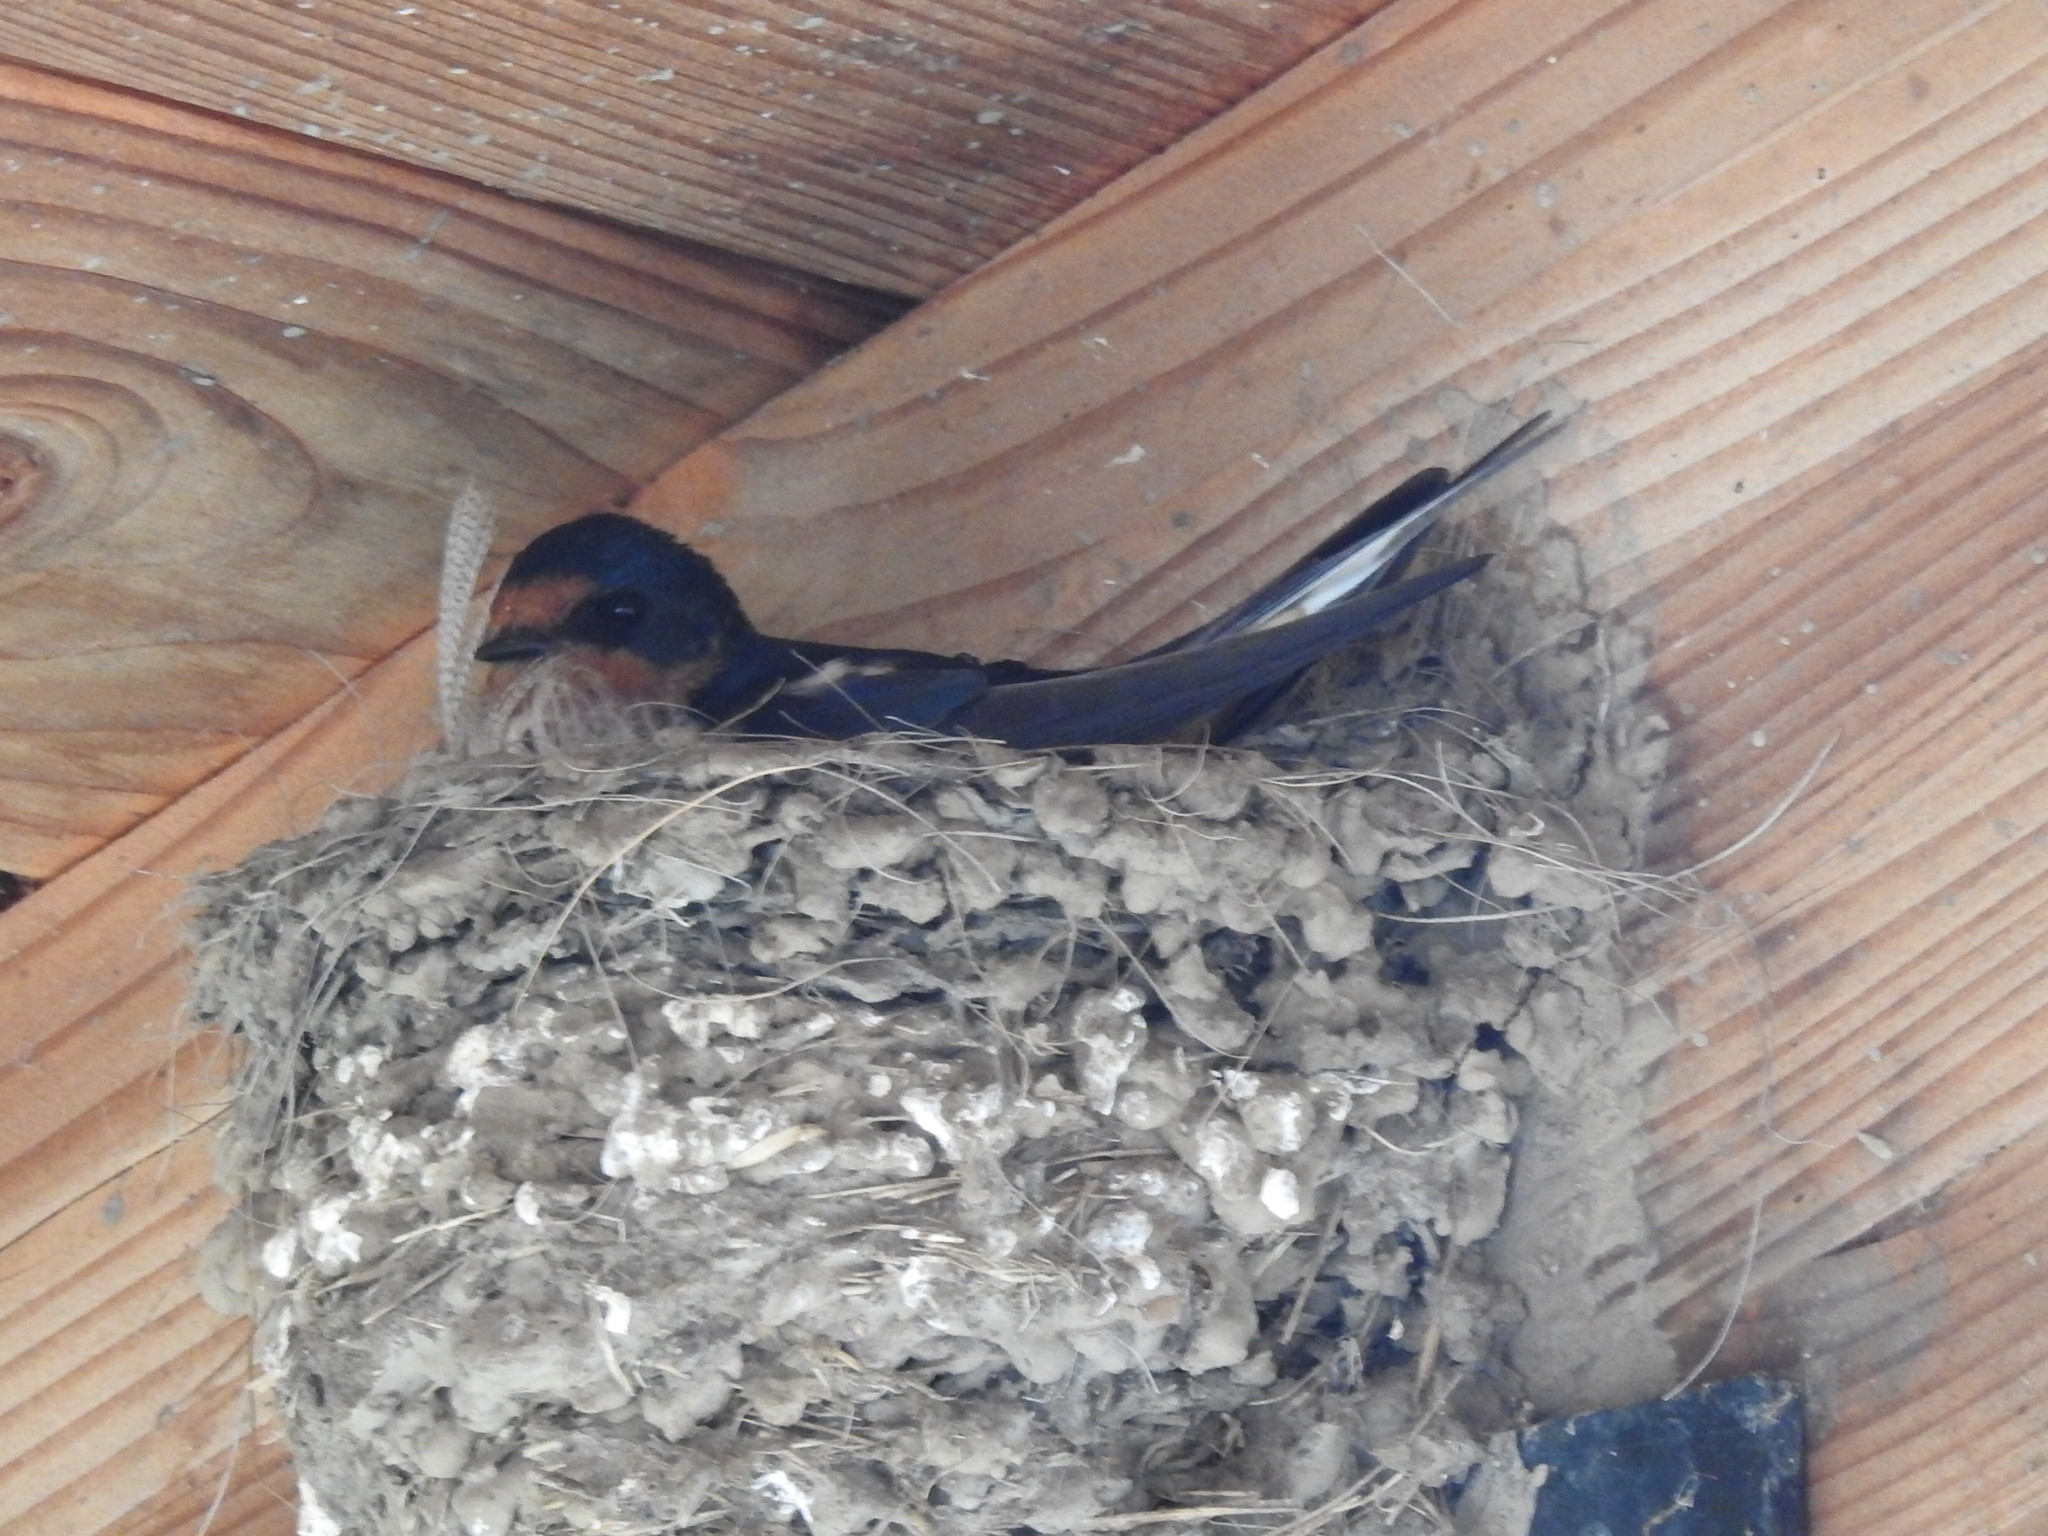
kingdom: Animalia
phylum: Chordata
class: Aves
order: Passeriformes
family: Hirundinidae
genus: Hirundo
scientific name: Hirundo rustica
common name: Barn swallow
